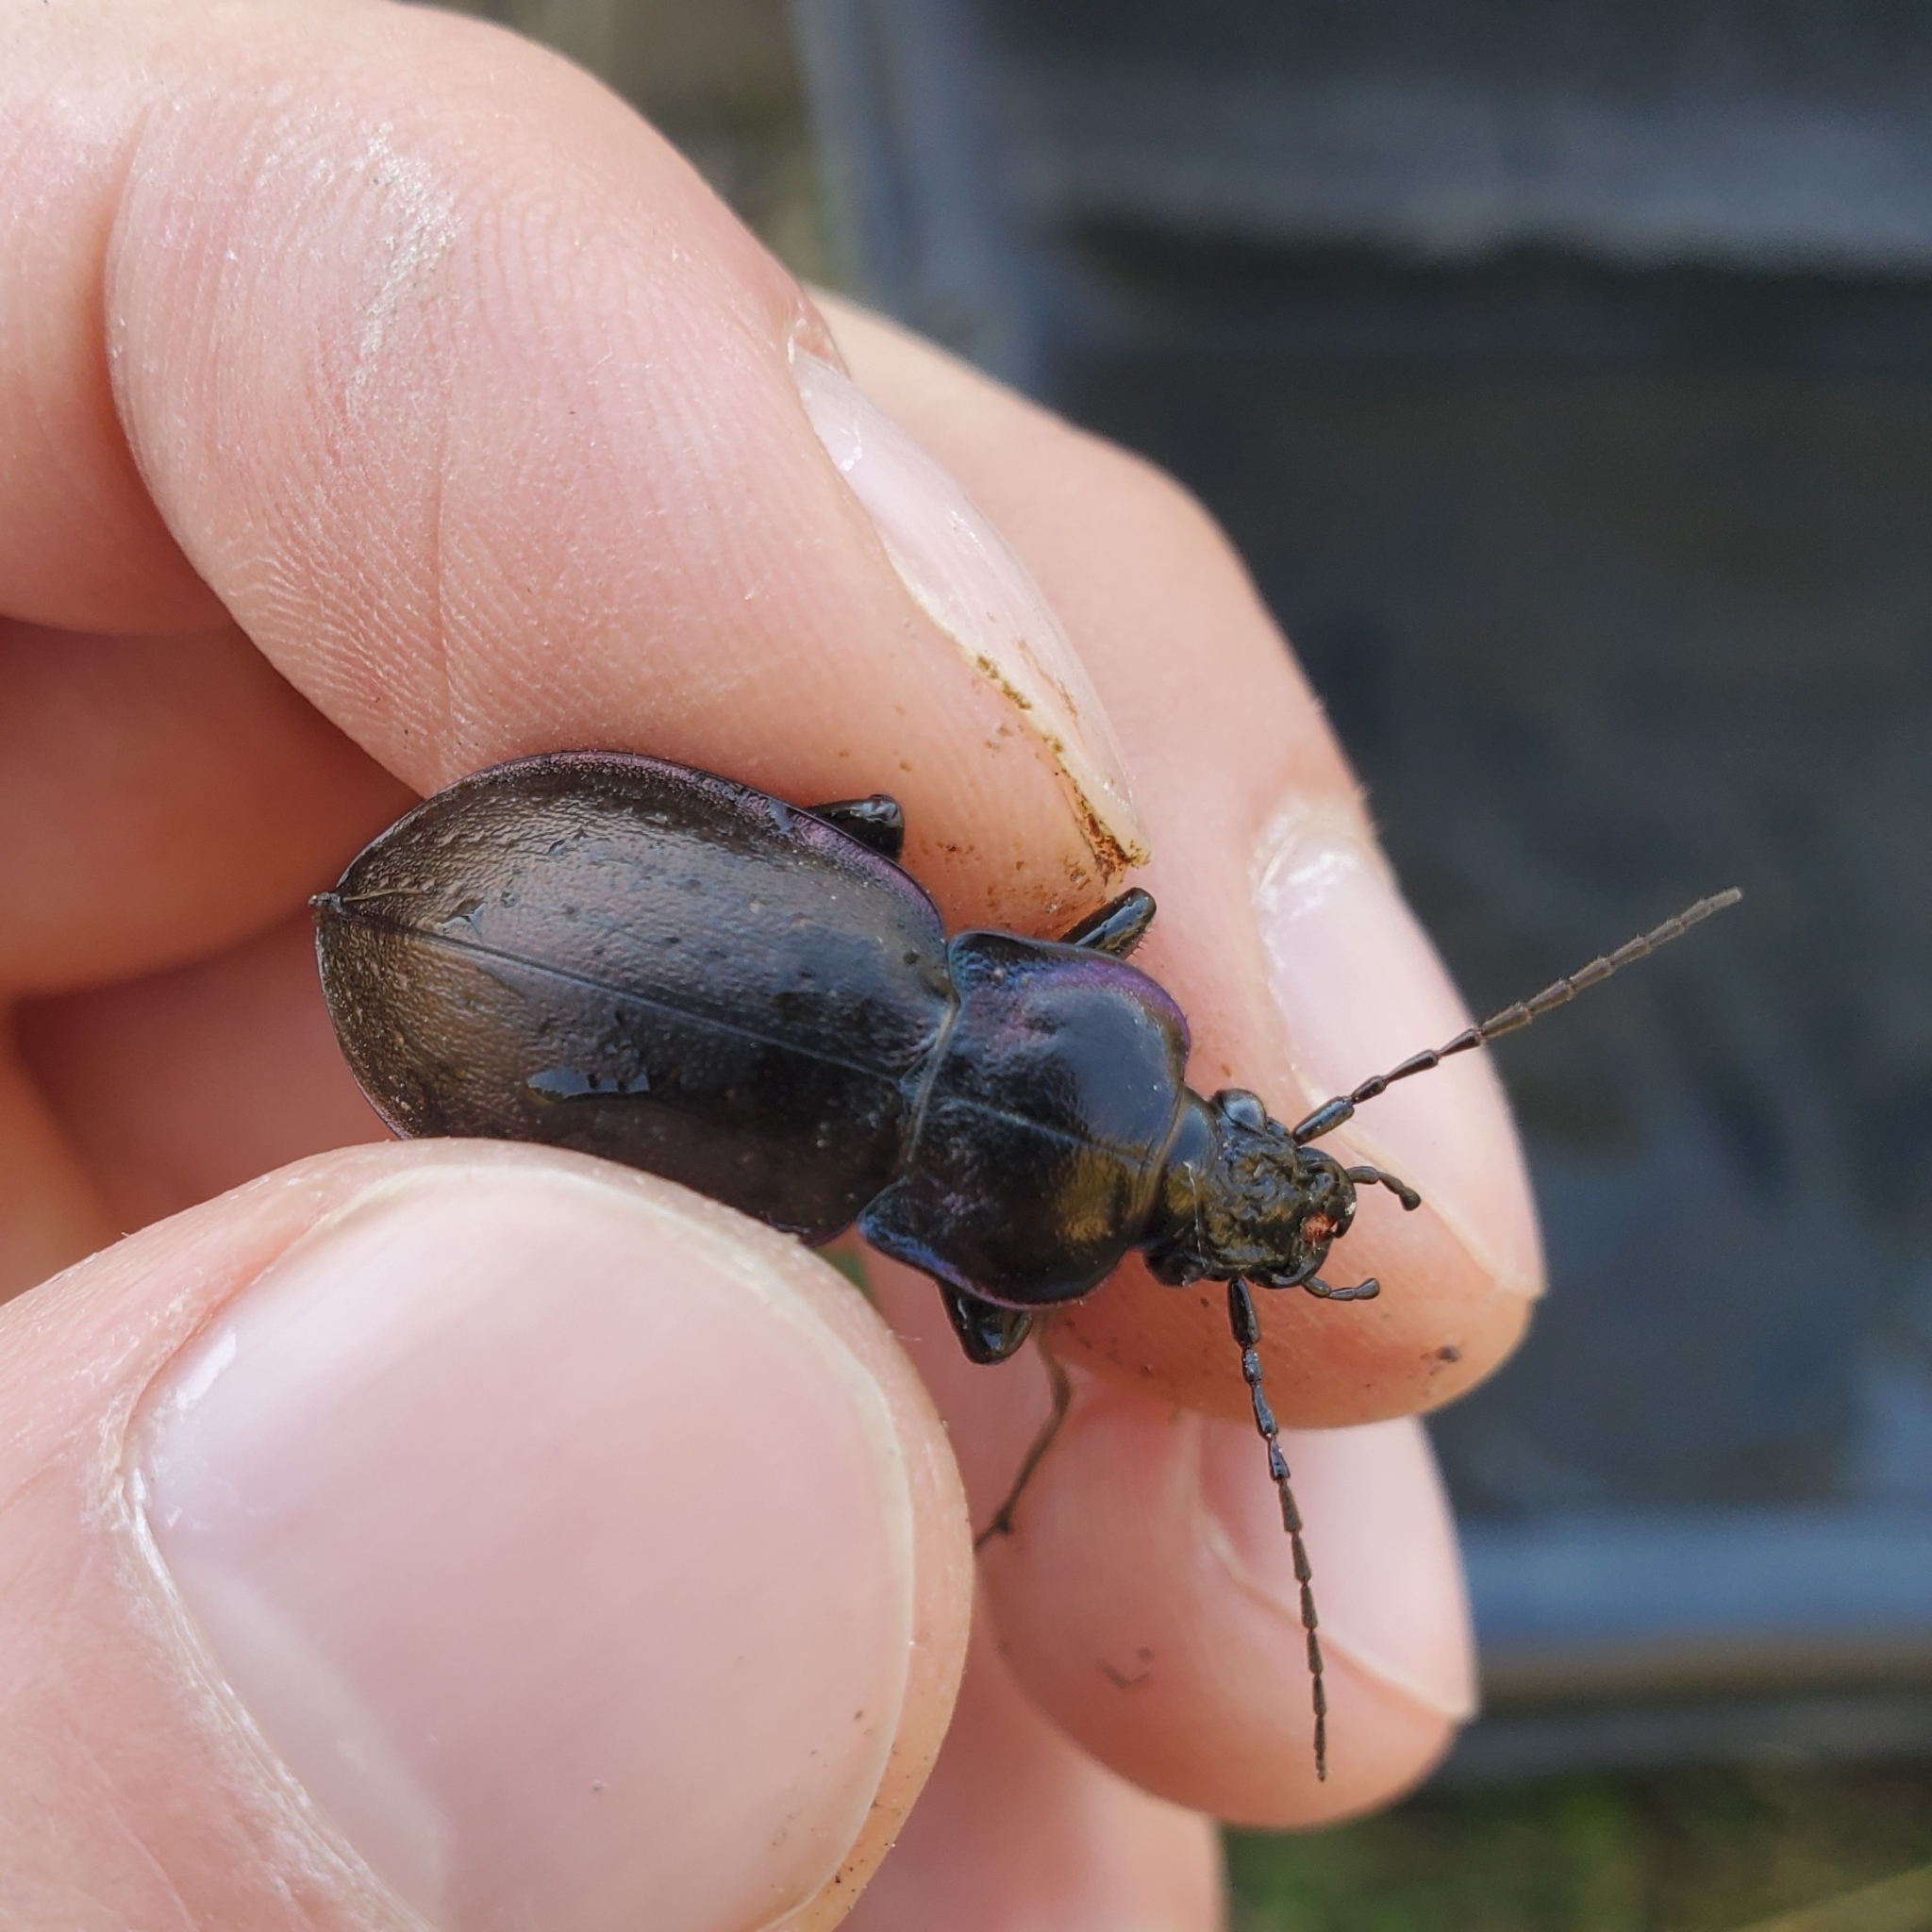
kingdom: Animalia
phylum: Arthropoda
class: Insecta
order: Coleoptera
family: Carabidae
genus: Carabus
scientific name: Carabus nemoralis
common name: European ground beetle
